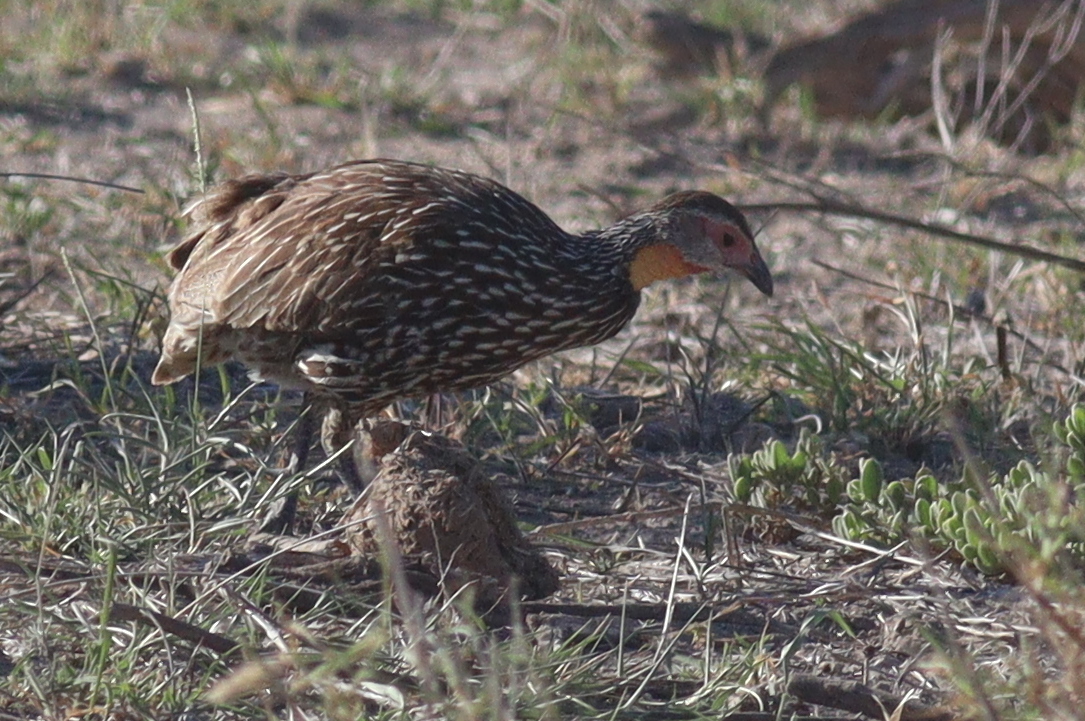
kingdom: Animalia
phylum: Chordata
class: Aves
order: Galliformes
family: Phasianidae
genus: Pternistis
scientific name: Pternistis leucoscepus
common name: Yellow-necked spurfowl
